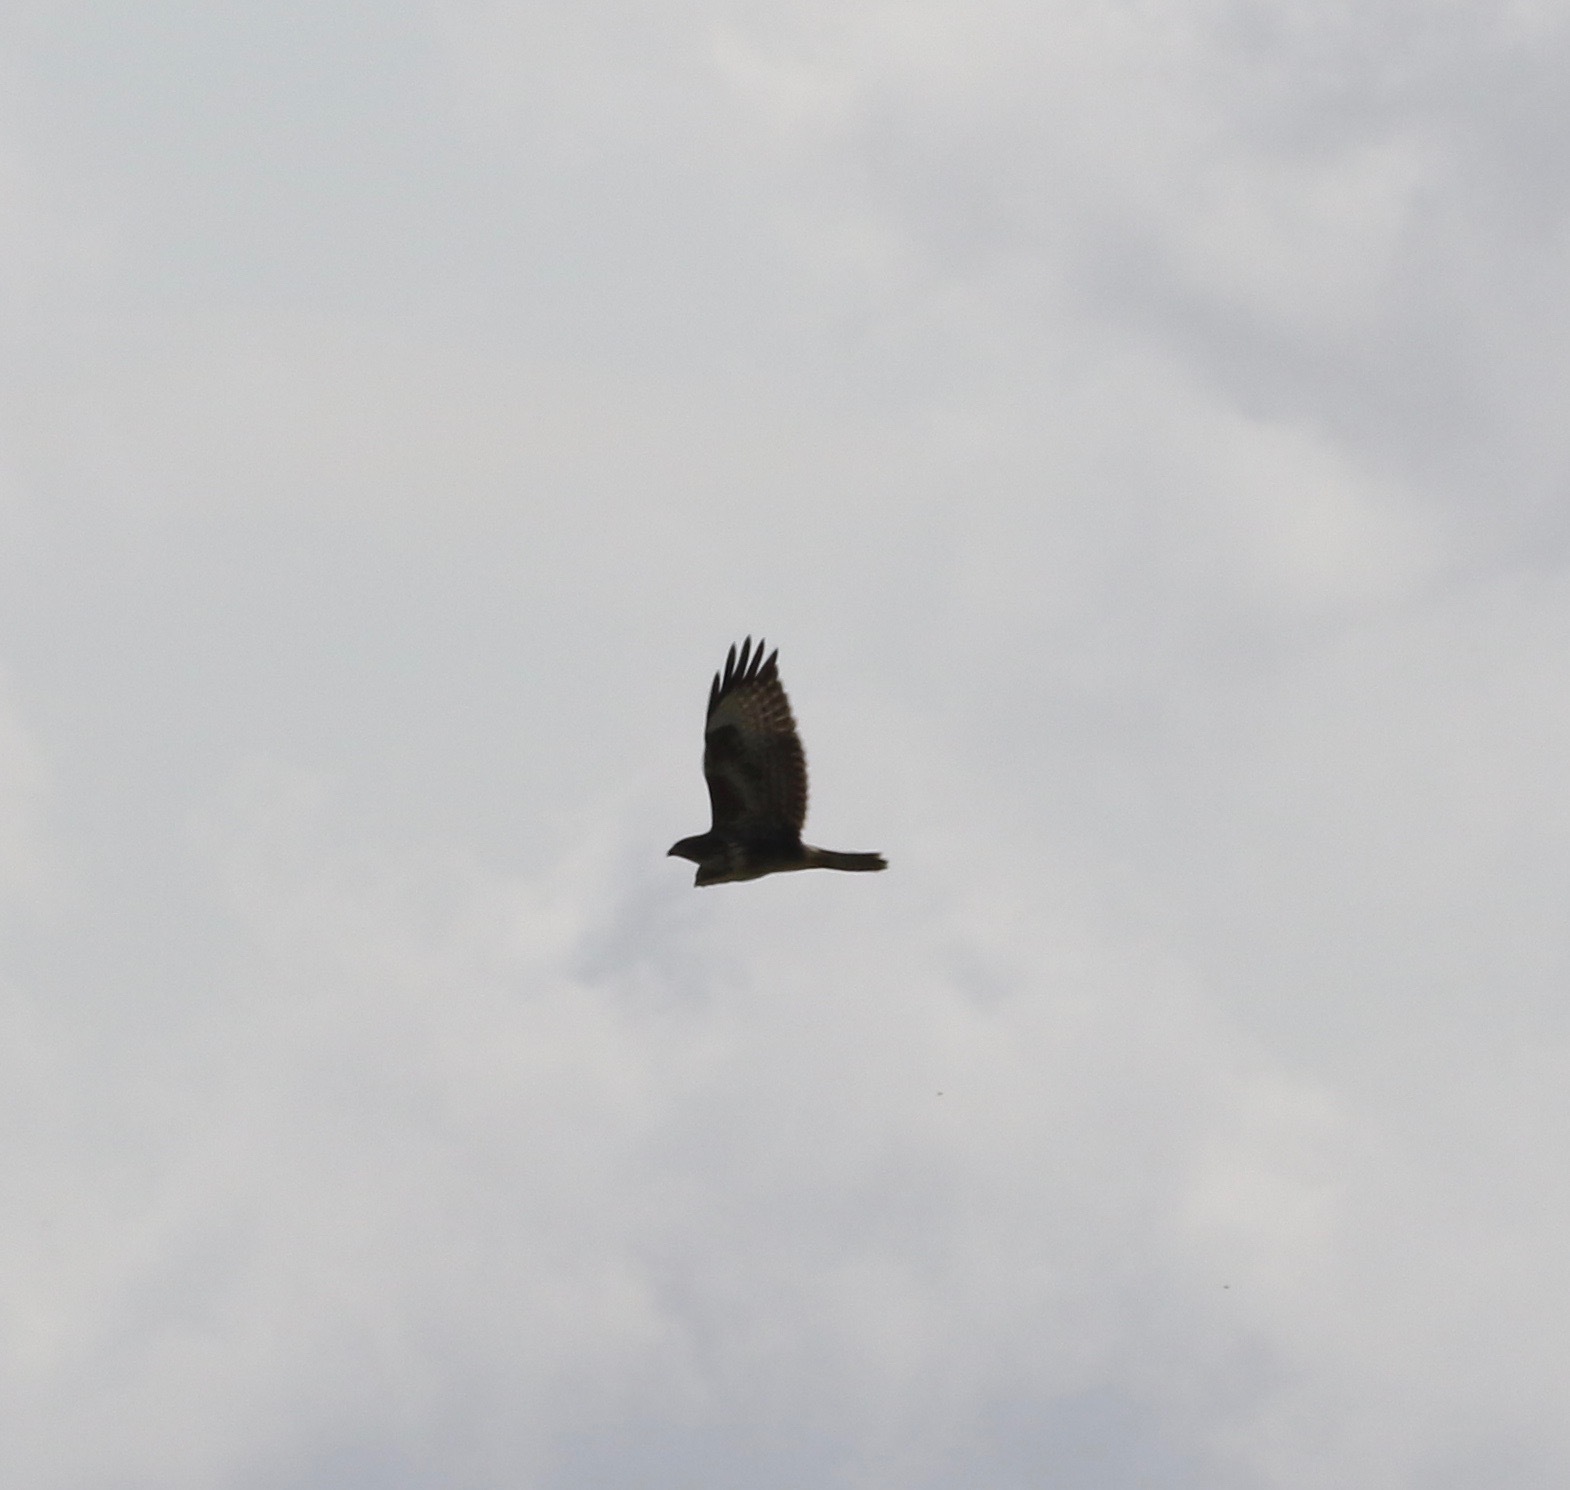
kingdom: Animalia
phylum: Chordata
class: Aves
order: Accipitriformes
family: Accipitridae
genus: Buteo
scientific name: Buteo buteo
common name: Common buzzard
